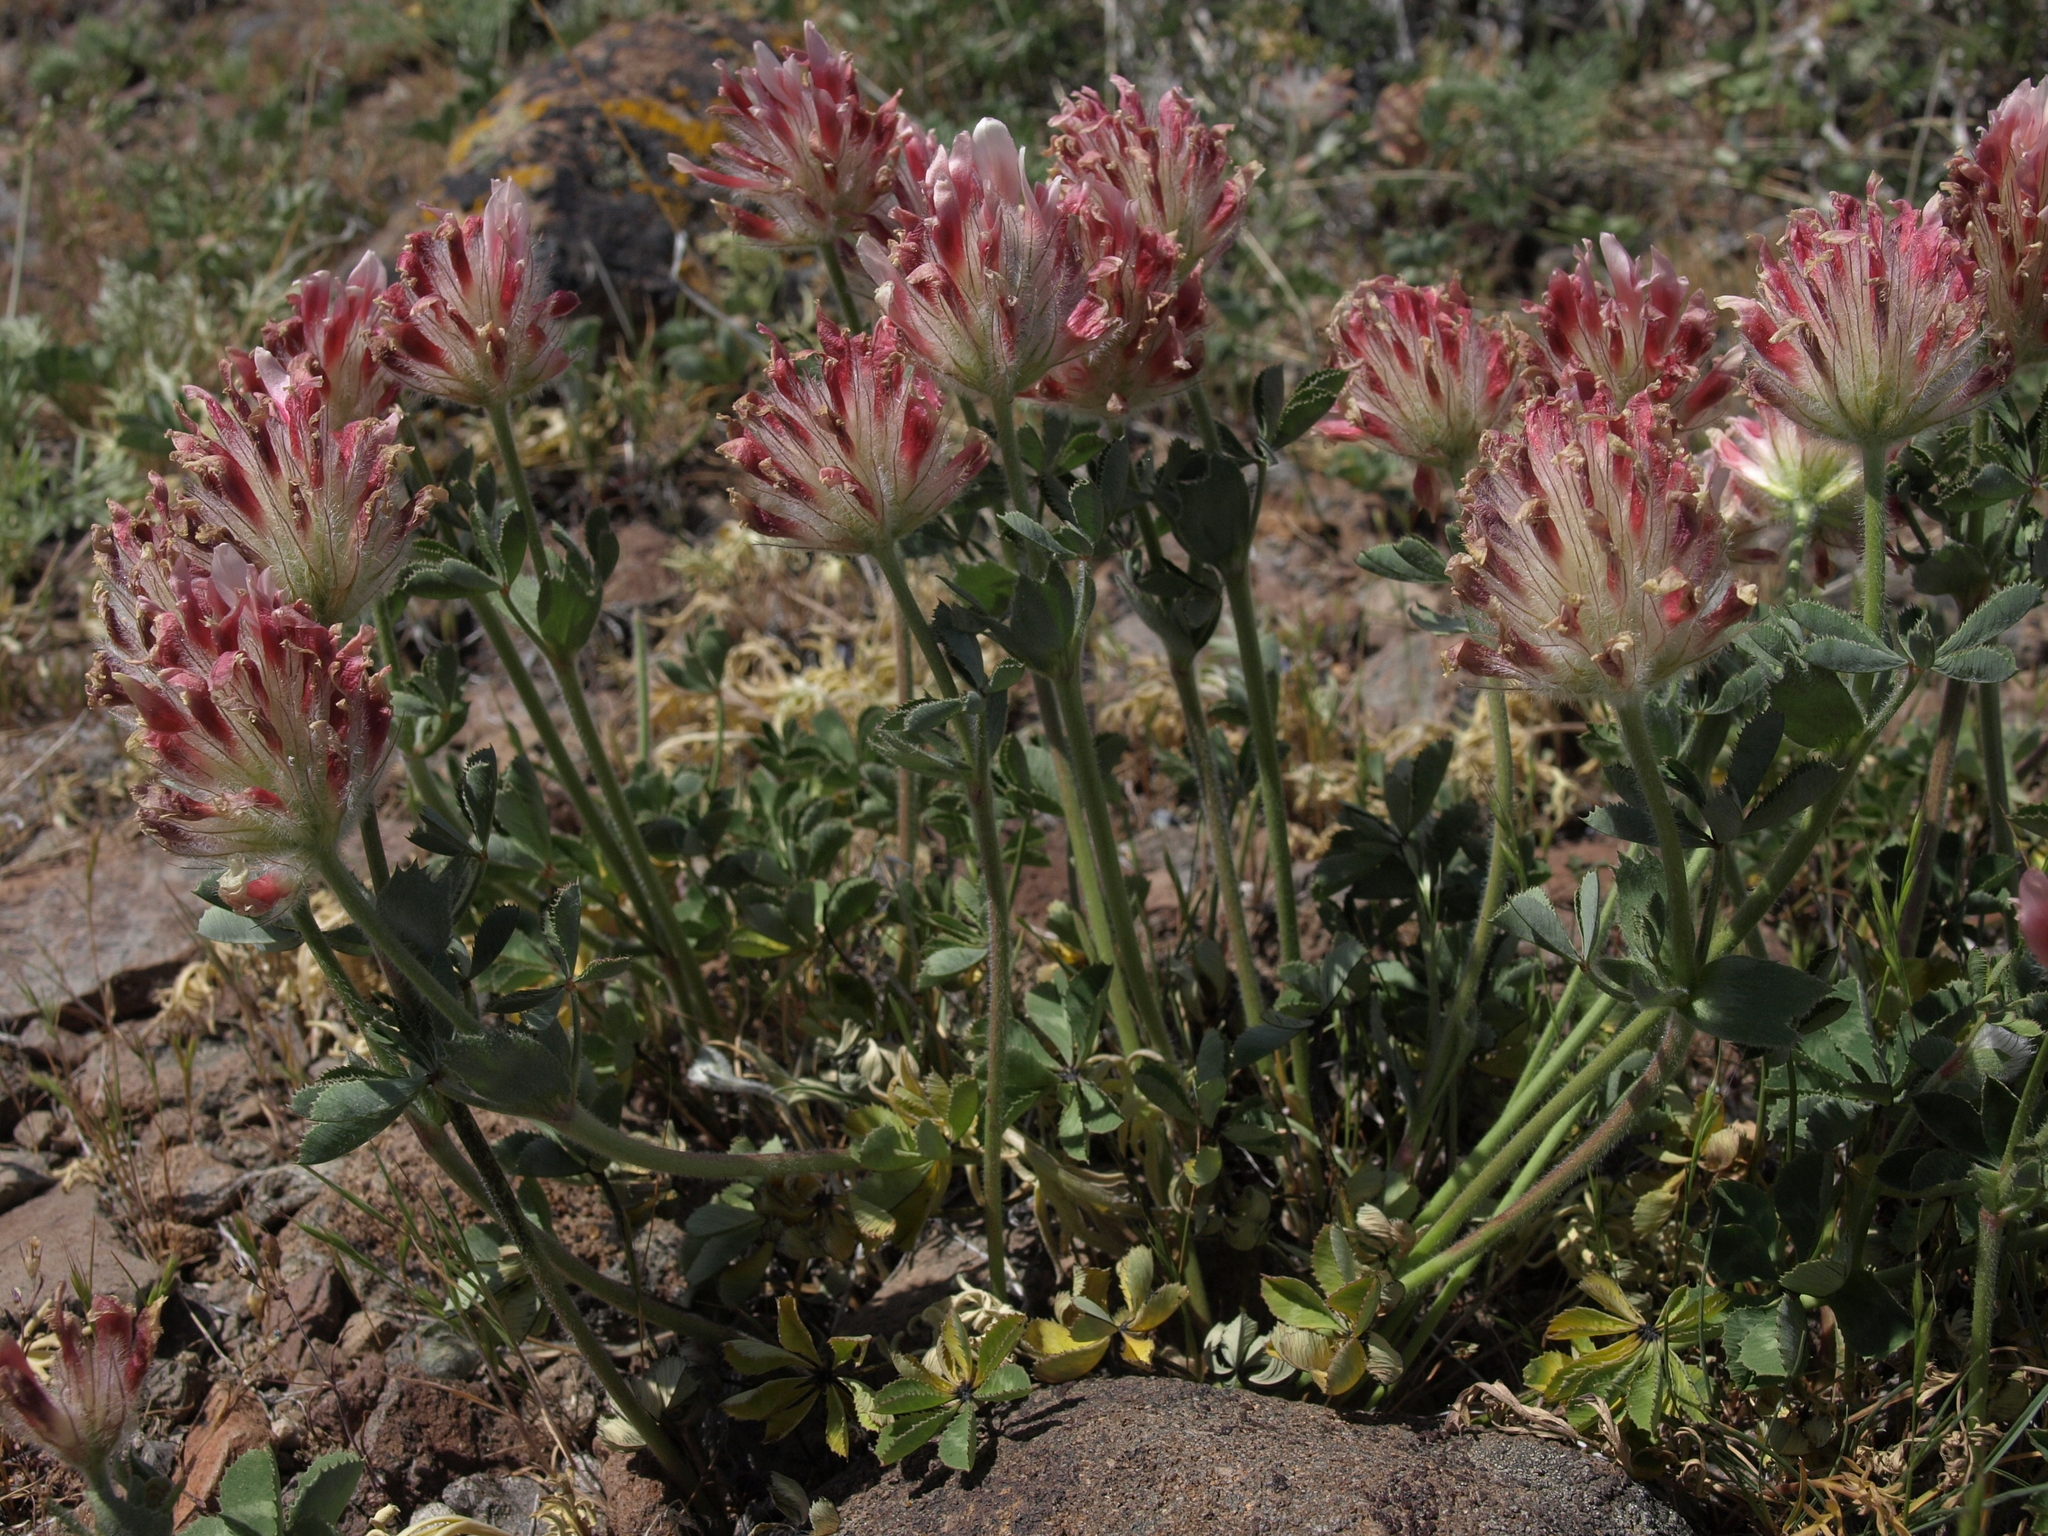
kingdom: Plantae
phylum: Tracheophyta
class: Magnoliopsida
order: Fabales
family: Fabaceae
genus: Trifolium
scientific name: Trifolium macrocephalum
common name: Large-head clover
